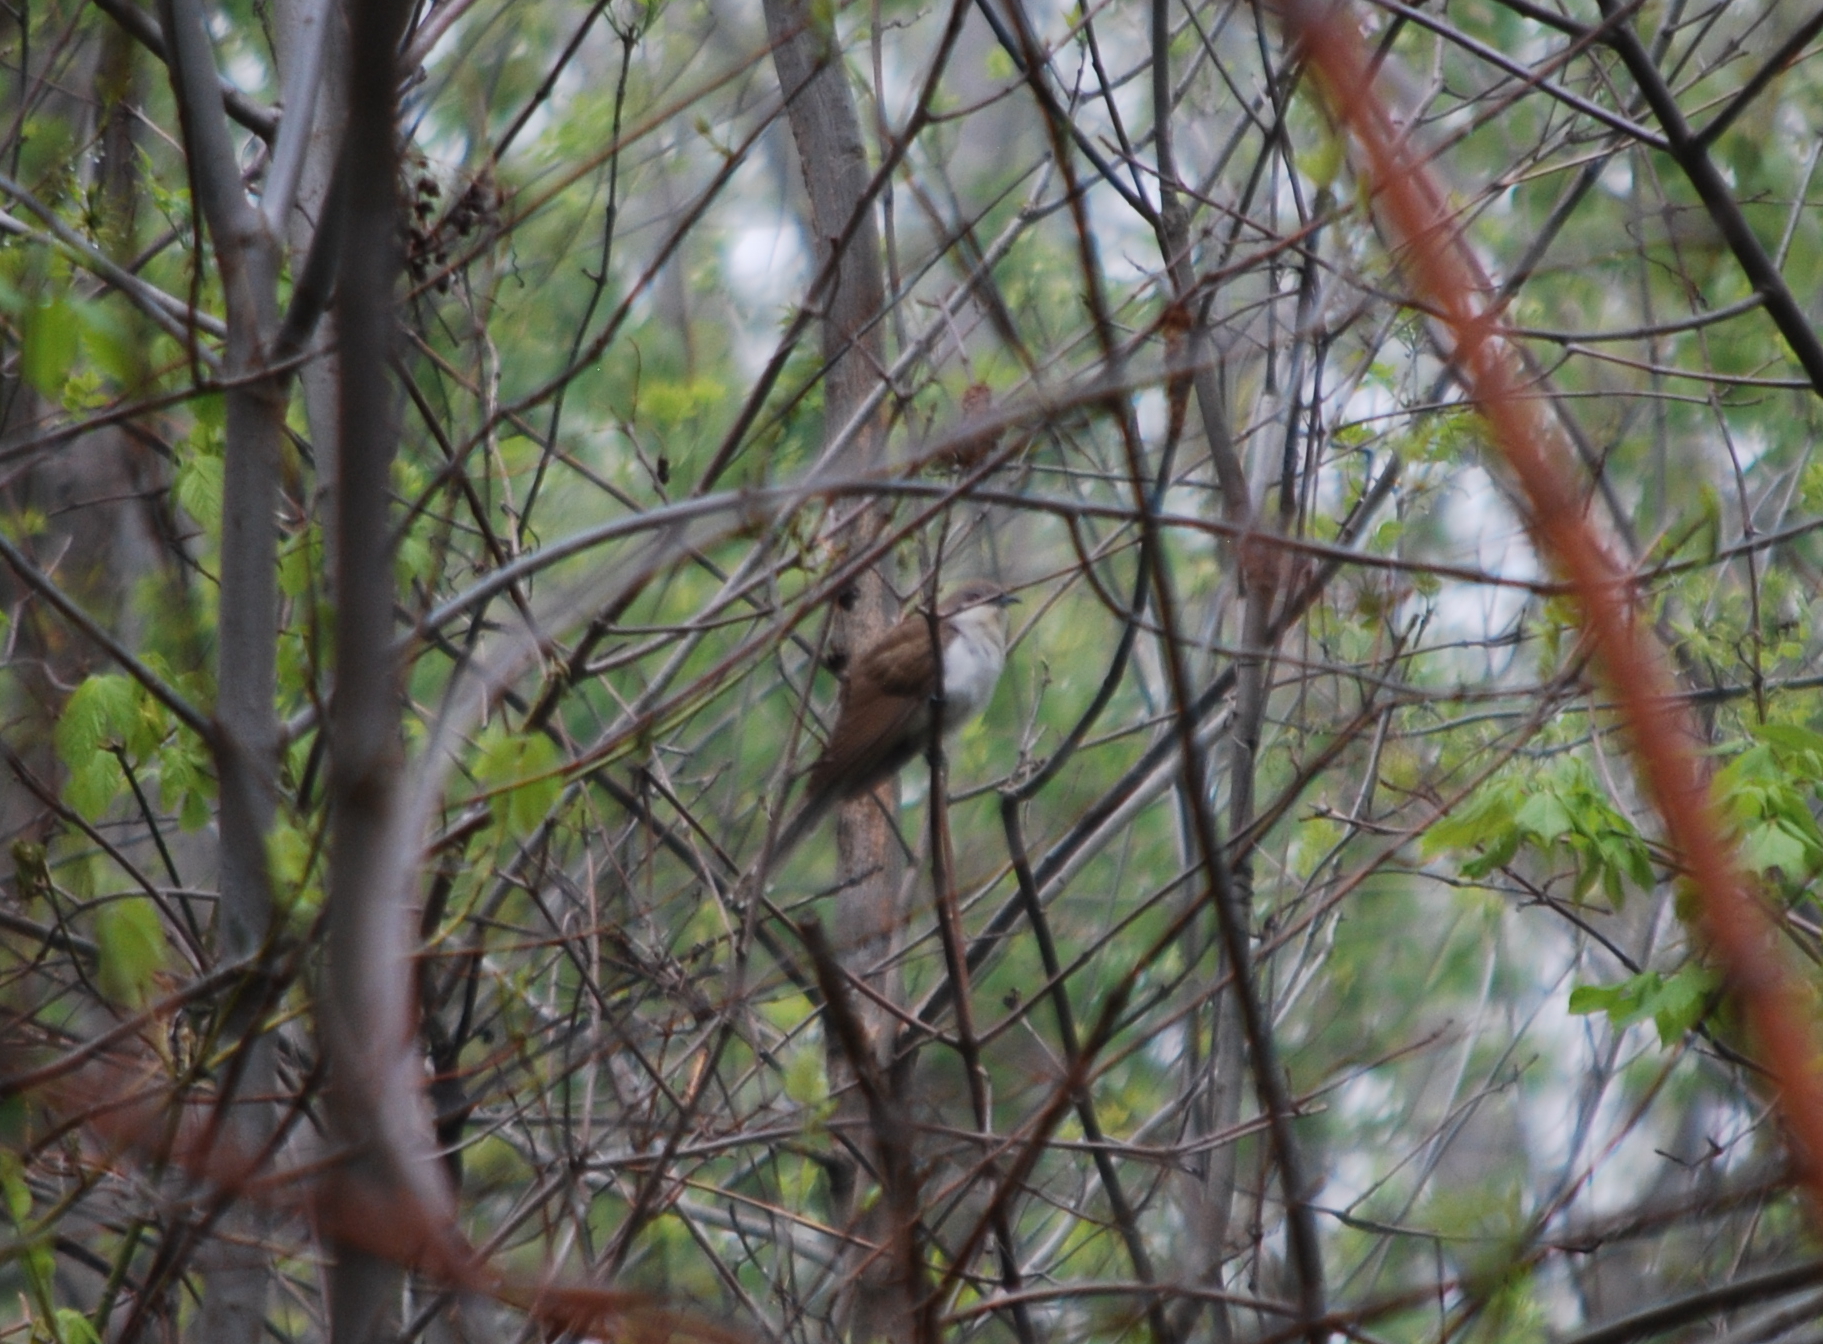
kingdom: Animalia
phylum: Chordata
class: Aves
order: Cuculiformes
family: Cuculidae
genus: Coccyzus
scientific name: Coccyzus erythropthalmus
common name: Black-billed cuckoo
